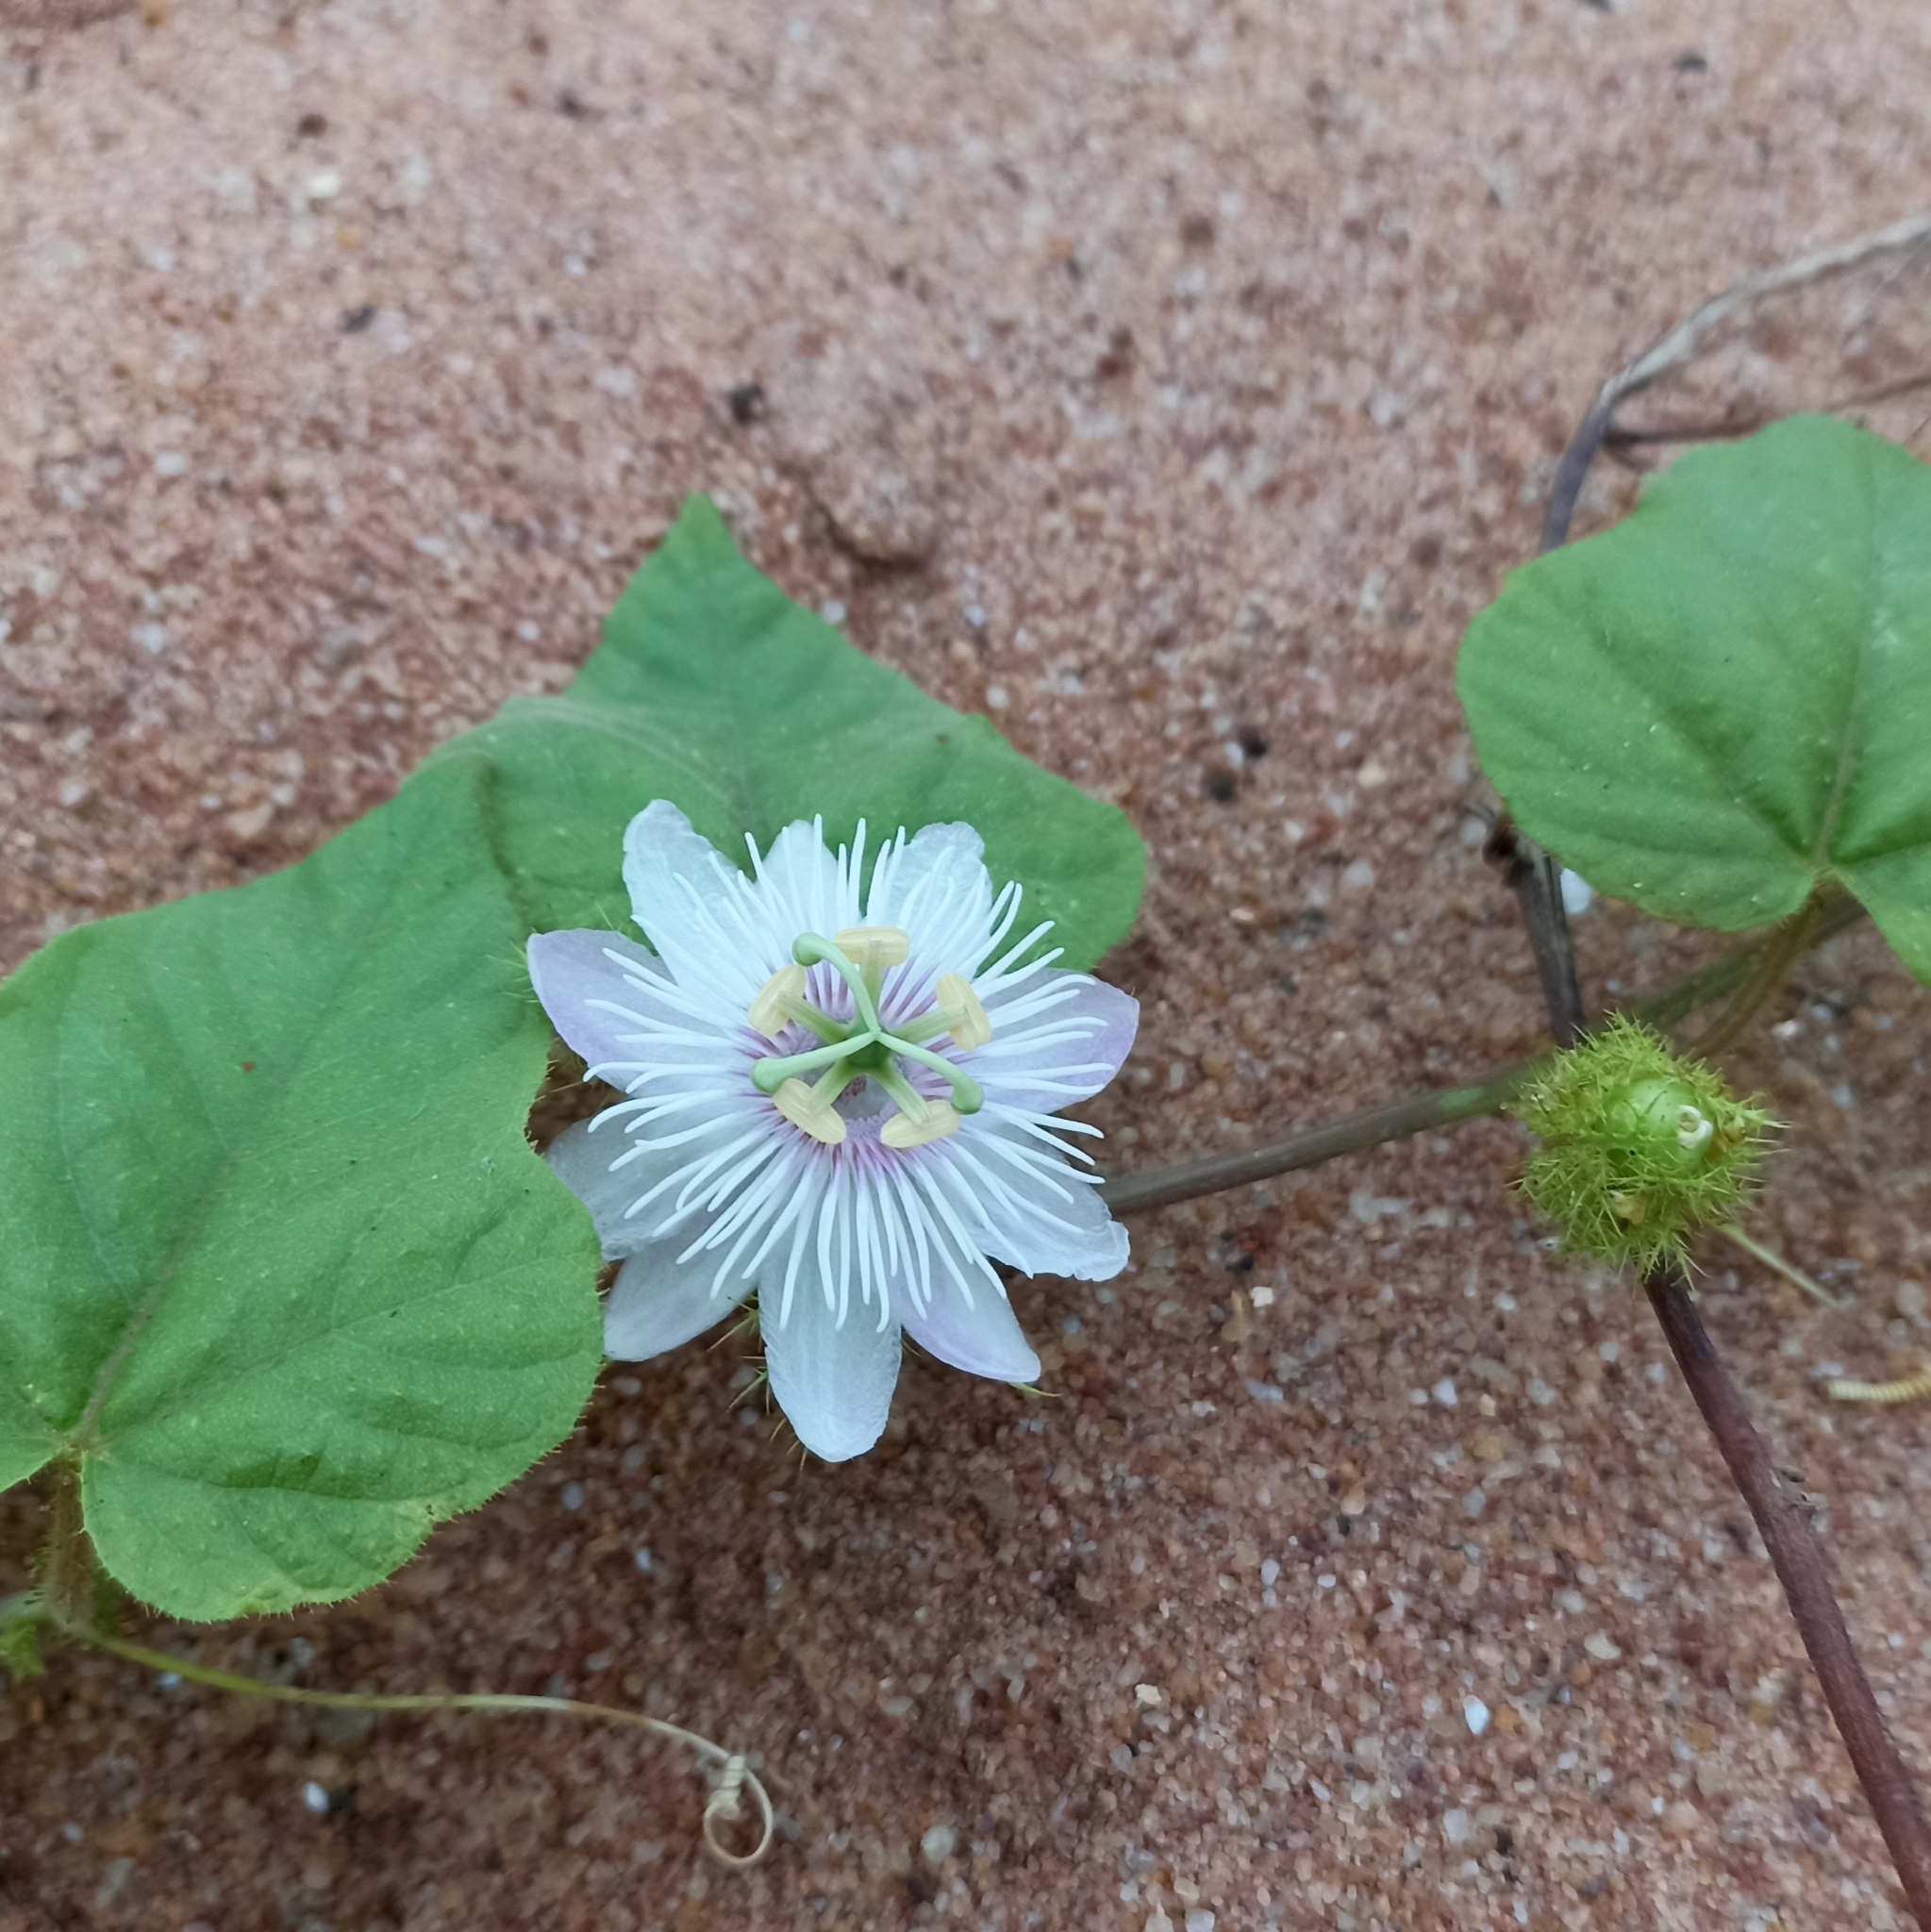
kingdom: Plantae
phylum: Tracheophyta
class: Magnoliopsida
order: Malpighiales
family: Passifloraceae
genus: Passiflora
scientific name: Passiflora foetida
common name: Fetid passionflower
